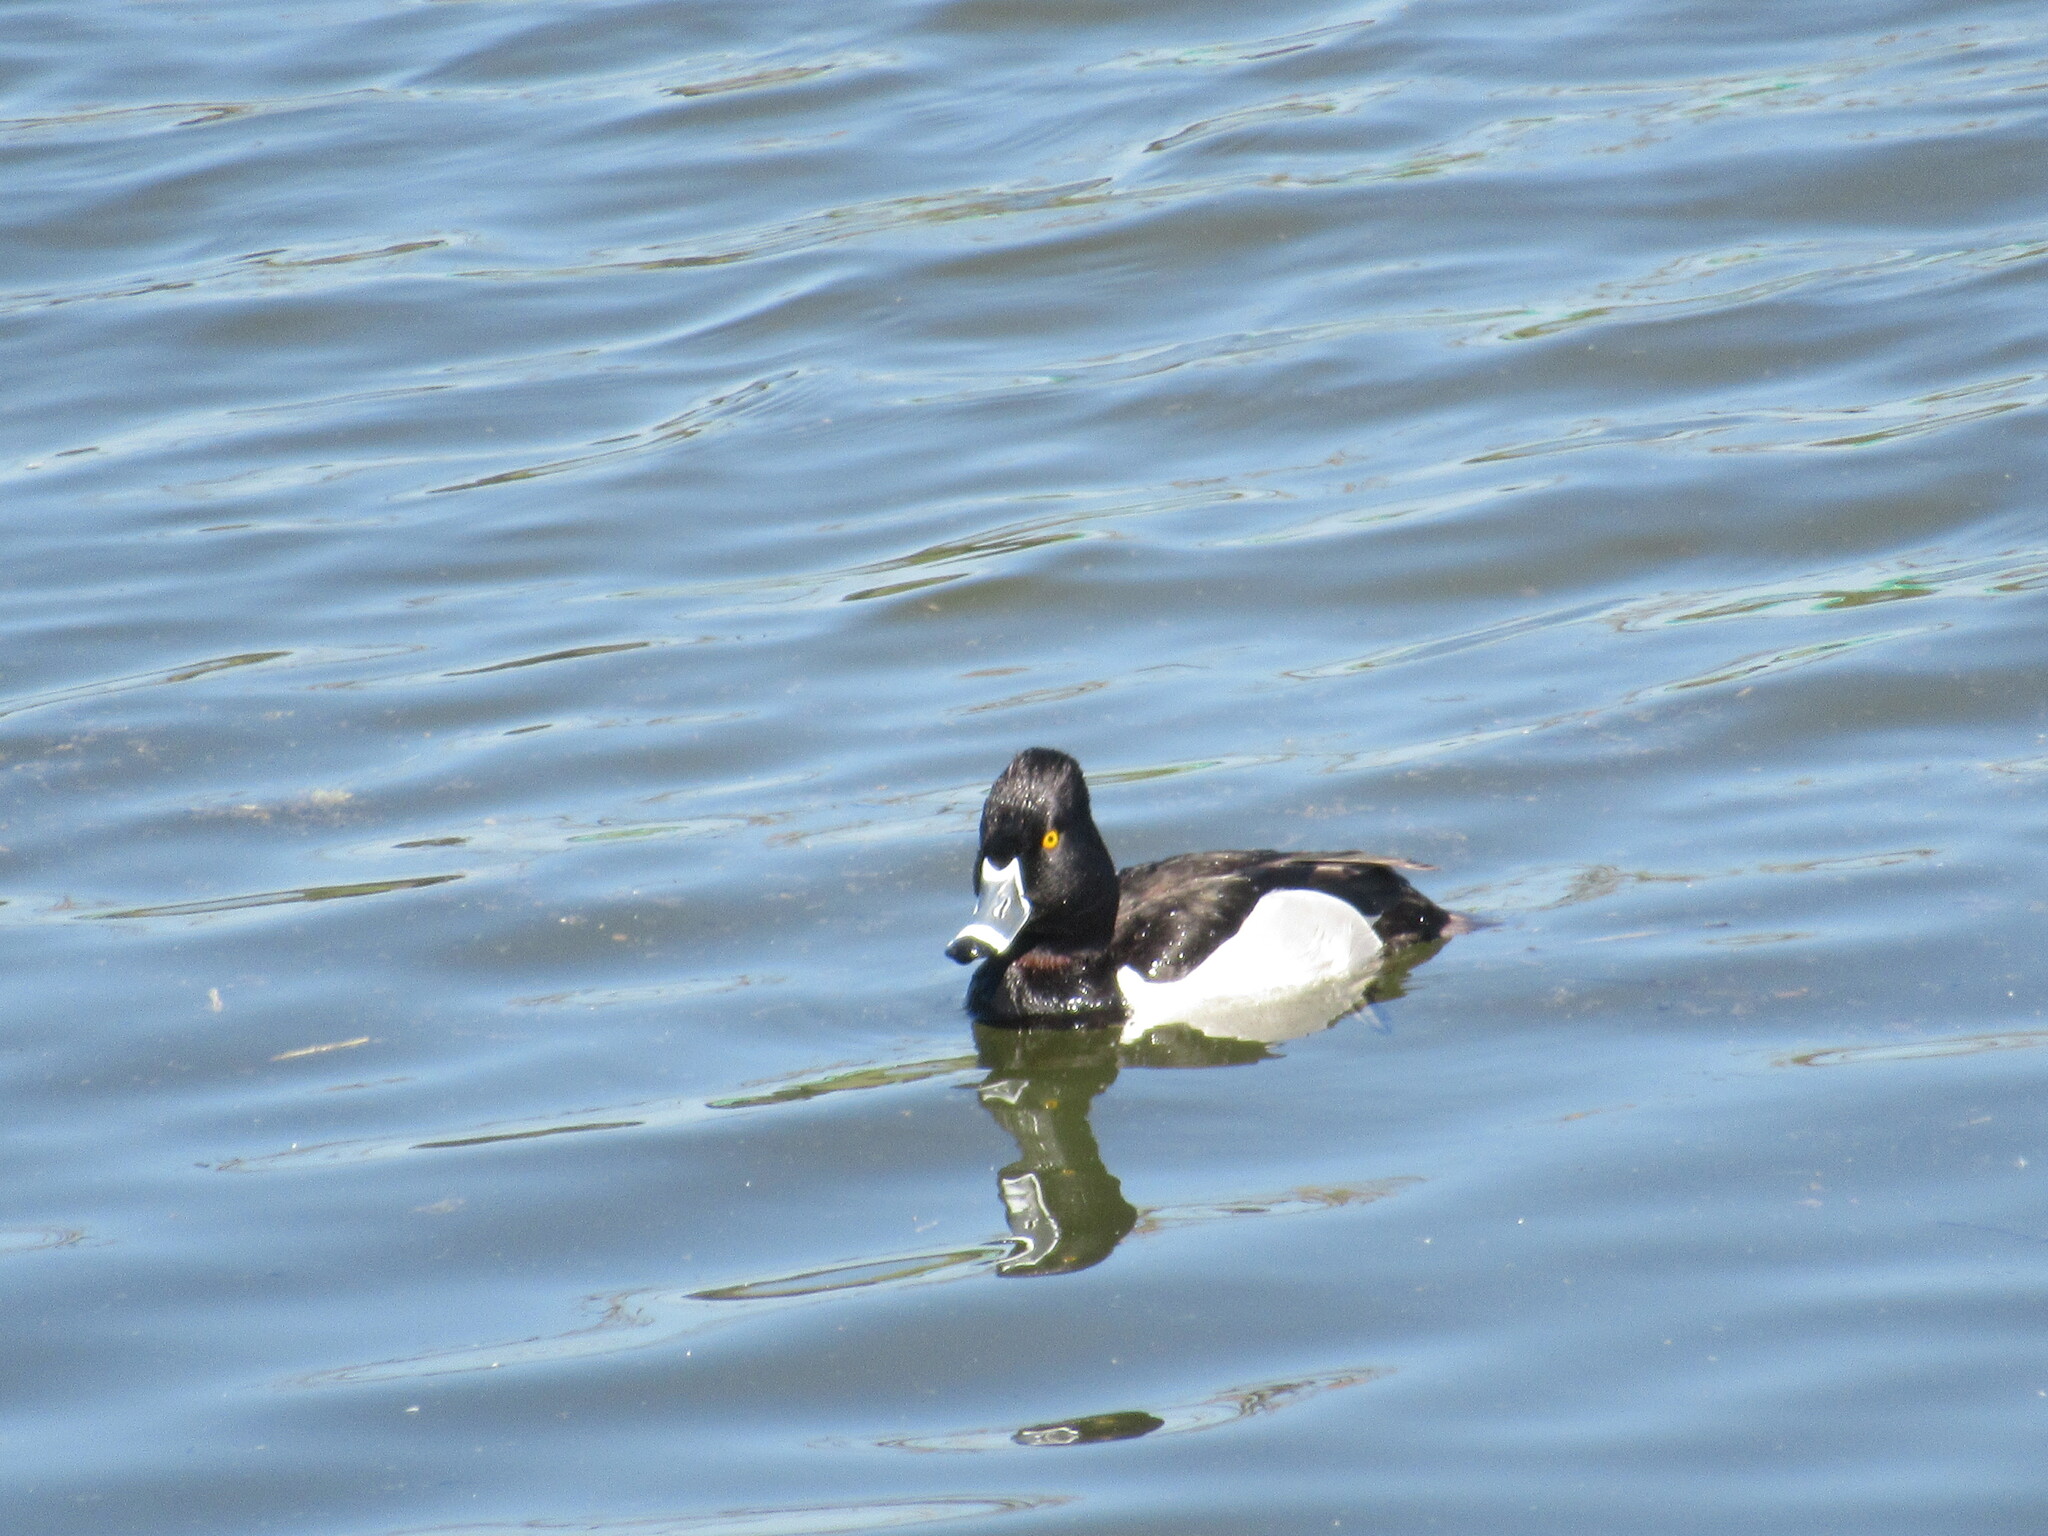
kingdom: Animalia
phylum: Chordata
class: Aves
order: Anseriformes
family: Anatidae
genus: Aythya
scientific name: Aythya collaris
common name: Ring-necked duck
